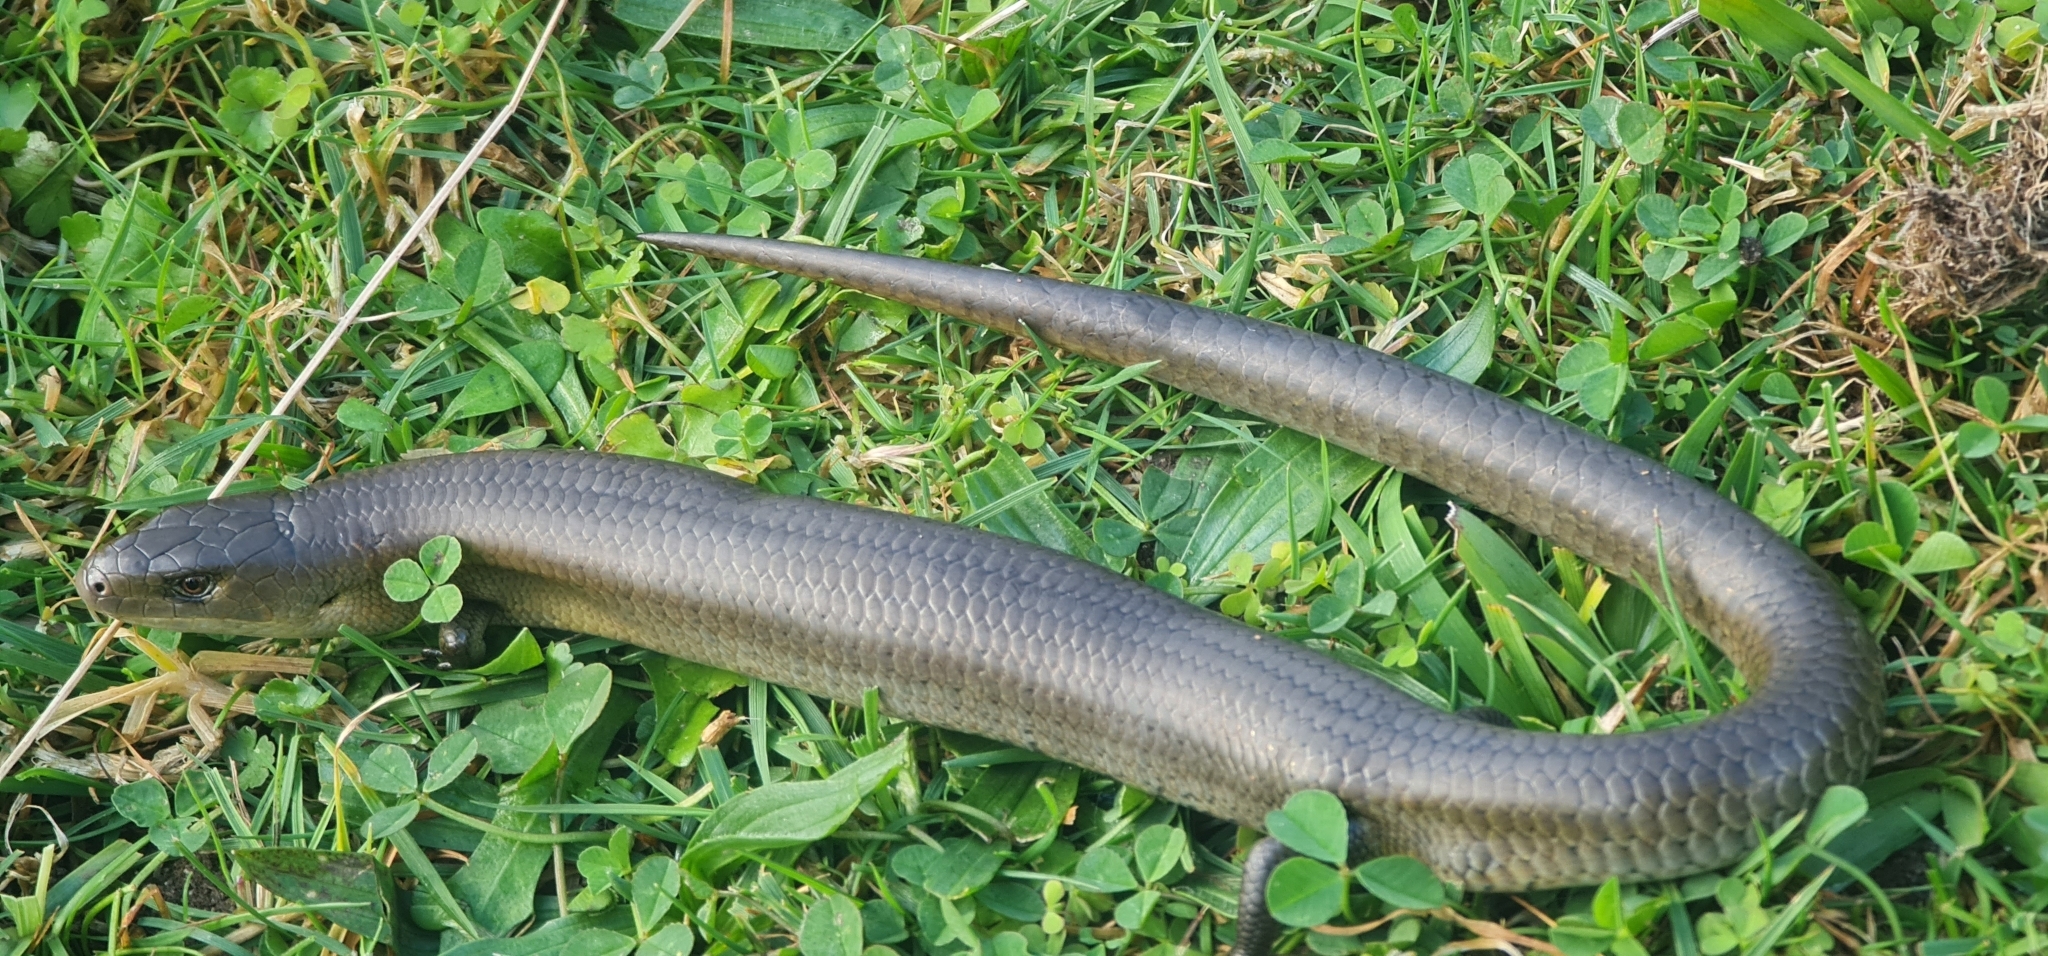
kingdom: Animalia
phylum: Chordata
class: Squamata
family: Scincidae
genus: Cyclodomorphus
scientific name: Cyclodomorphus michaeli
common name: Coastal she-oak slender bluetongue
